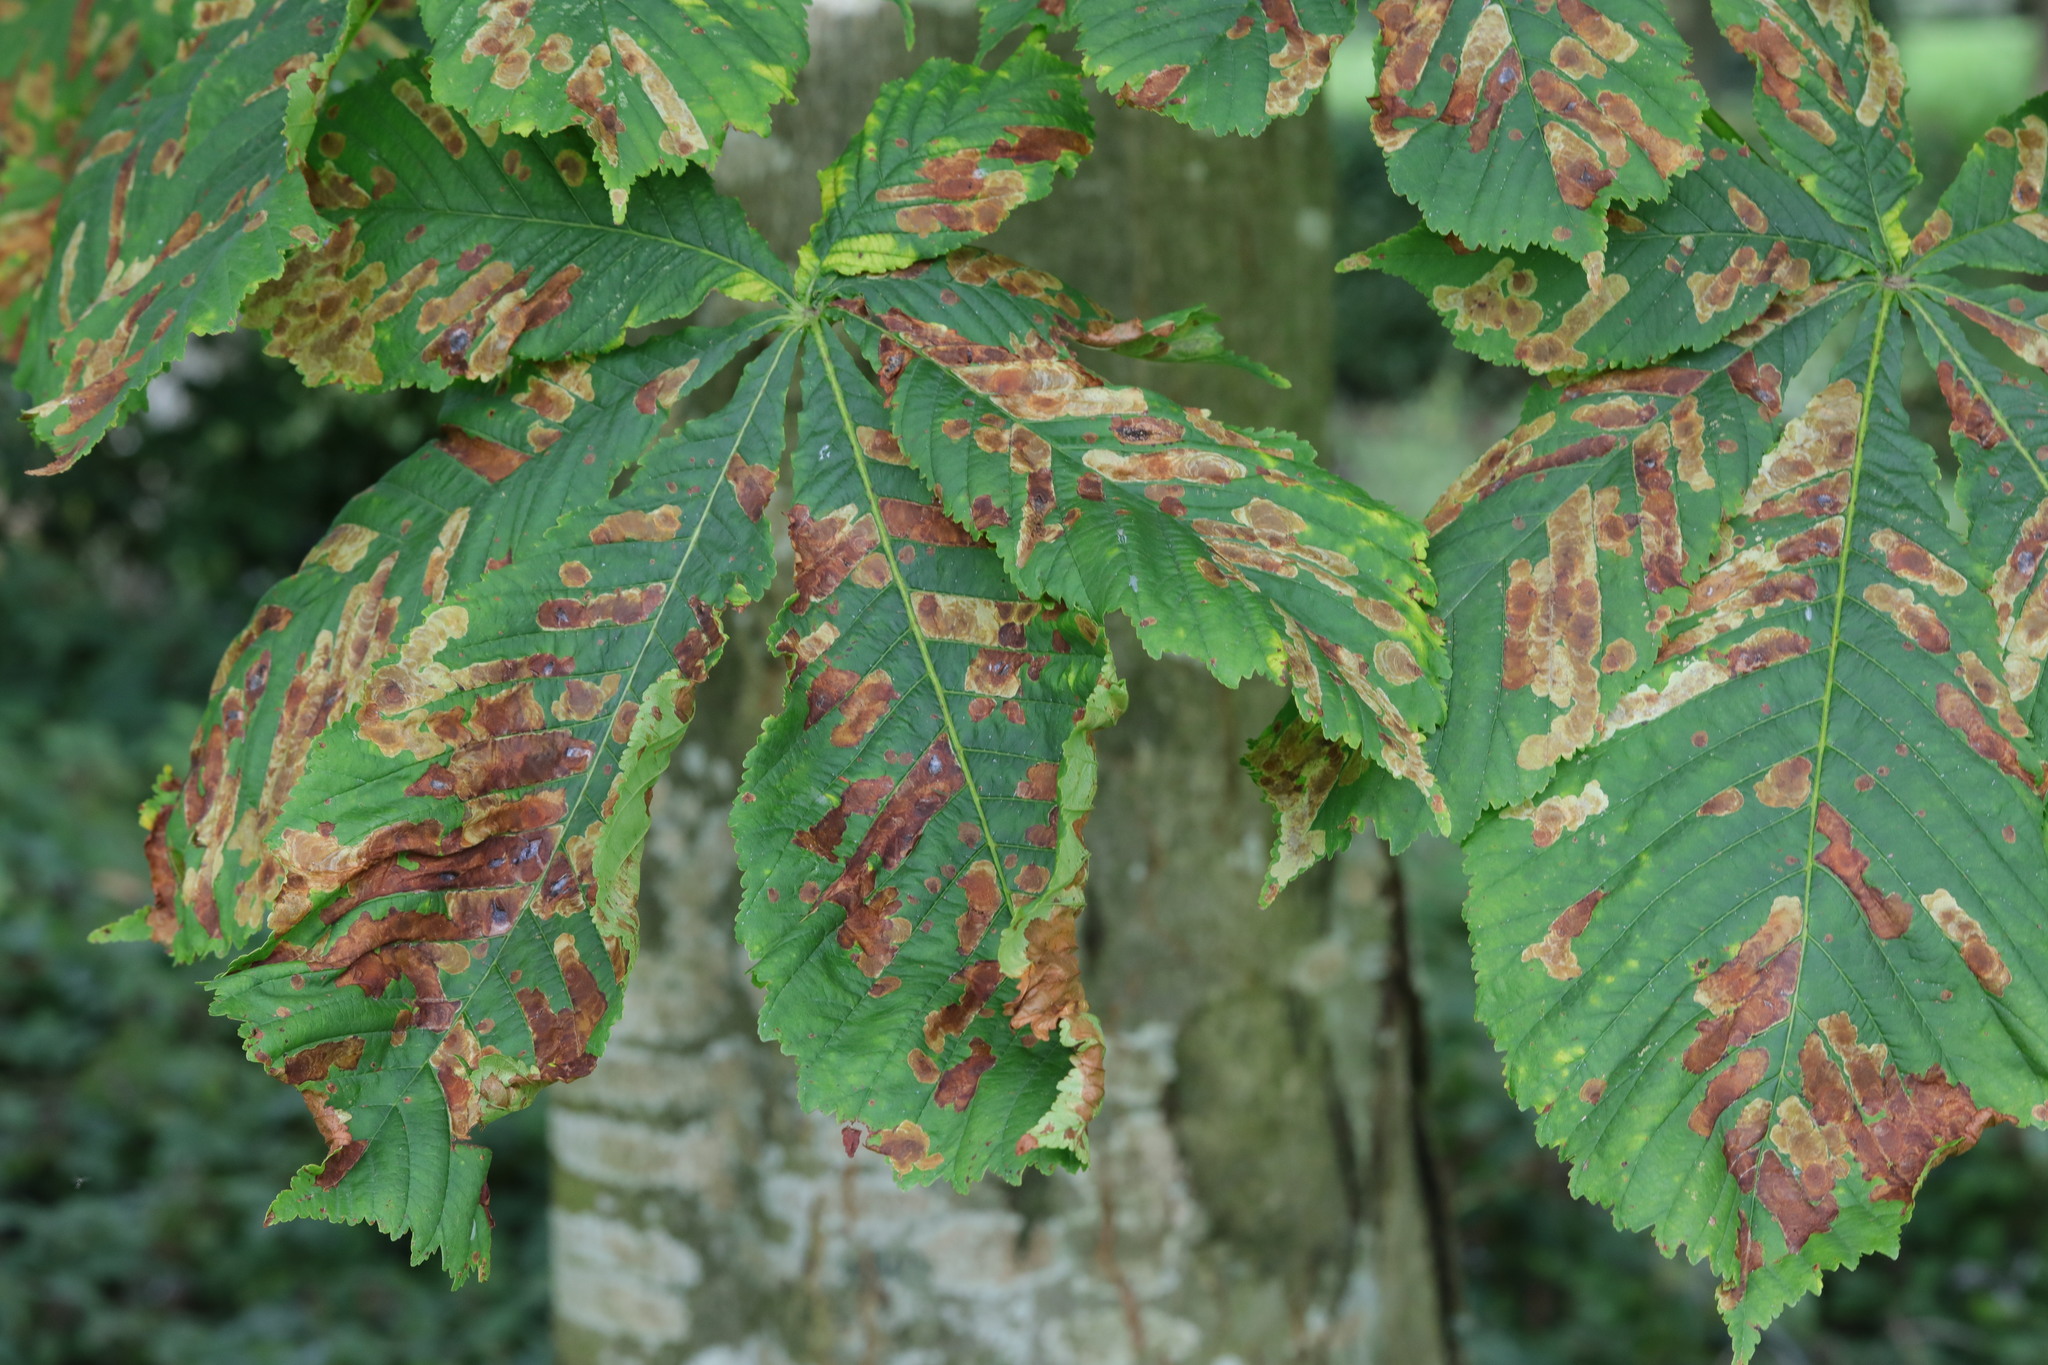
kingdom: Plantae
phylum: Tracheophyta
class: Magnoliopsida
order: Sapindales
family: Sapindaceae
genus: Aesculus
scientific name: Aesculus hippocastanum
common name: Horse-chestnut
